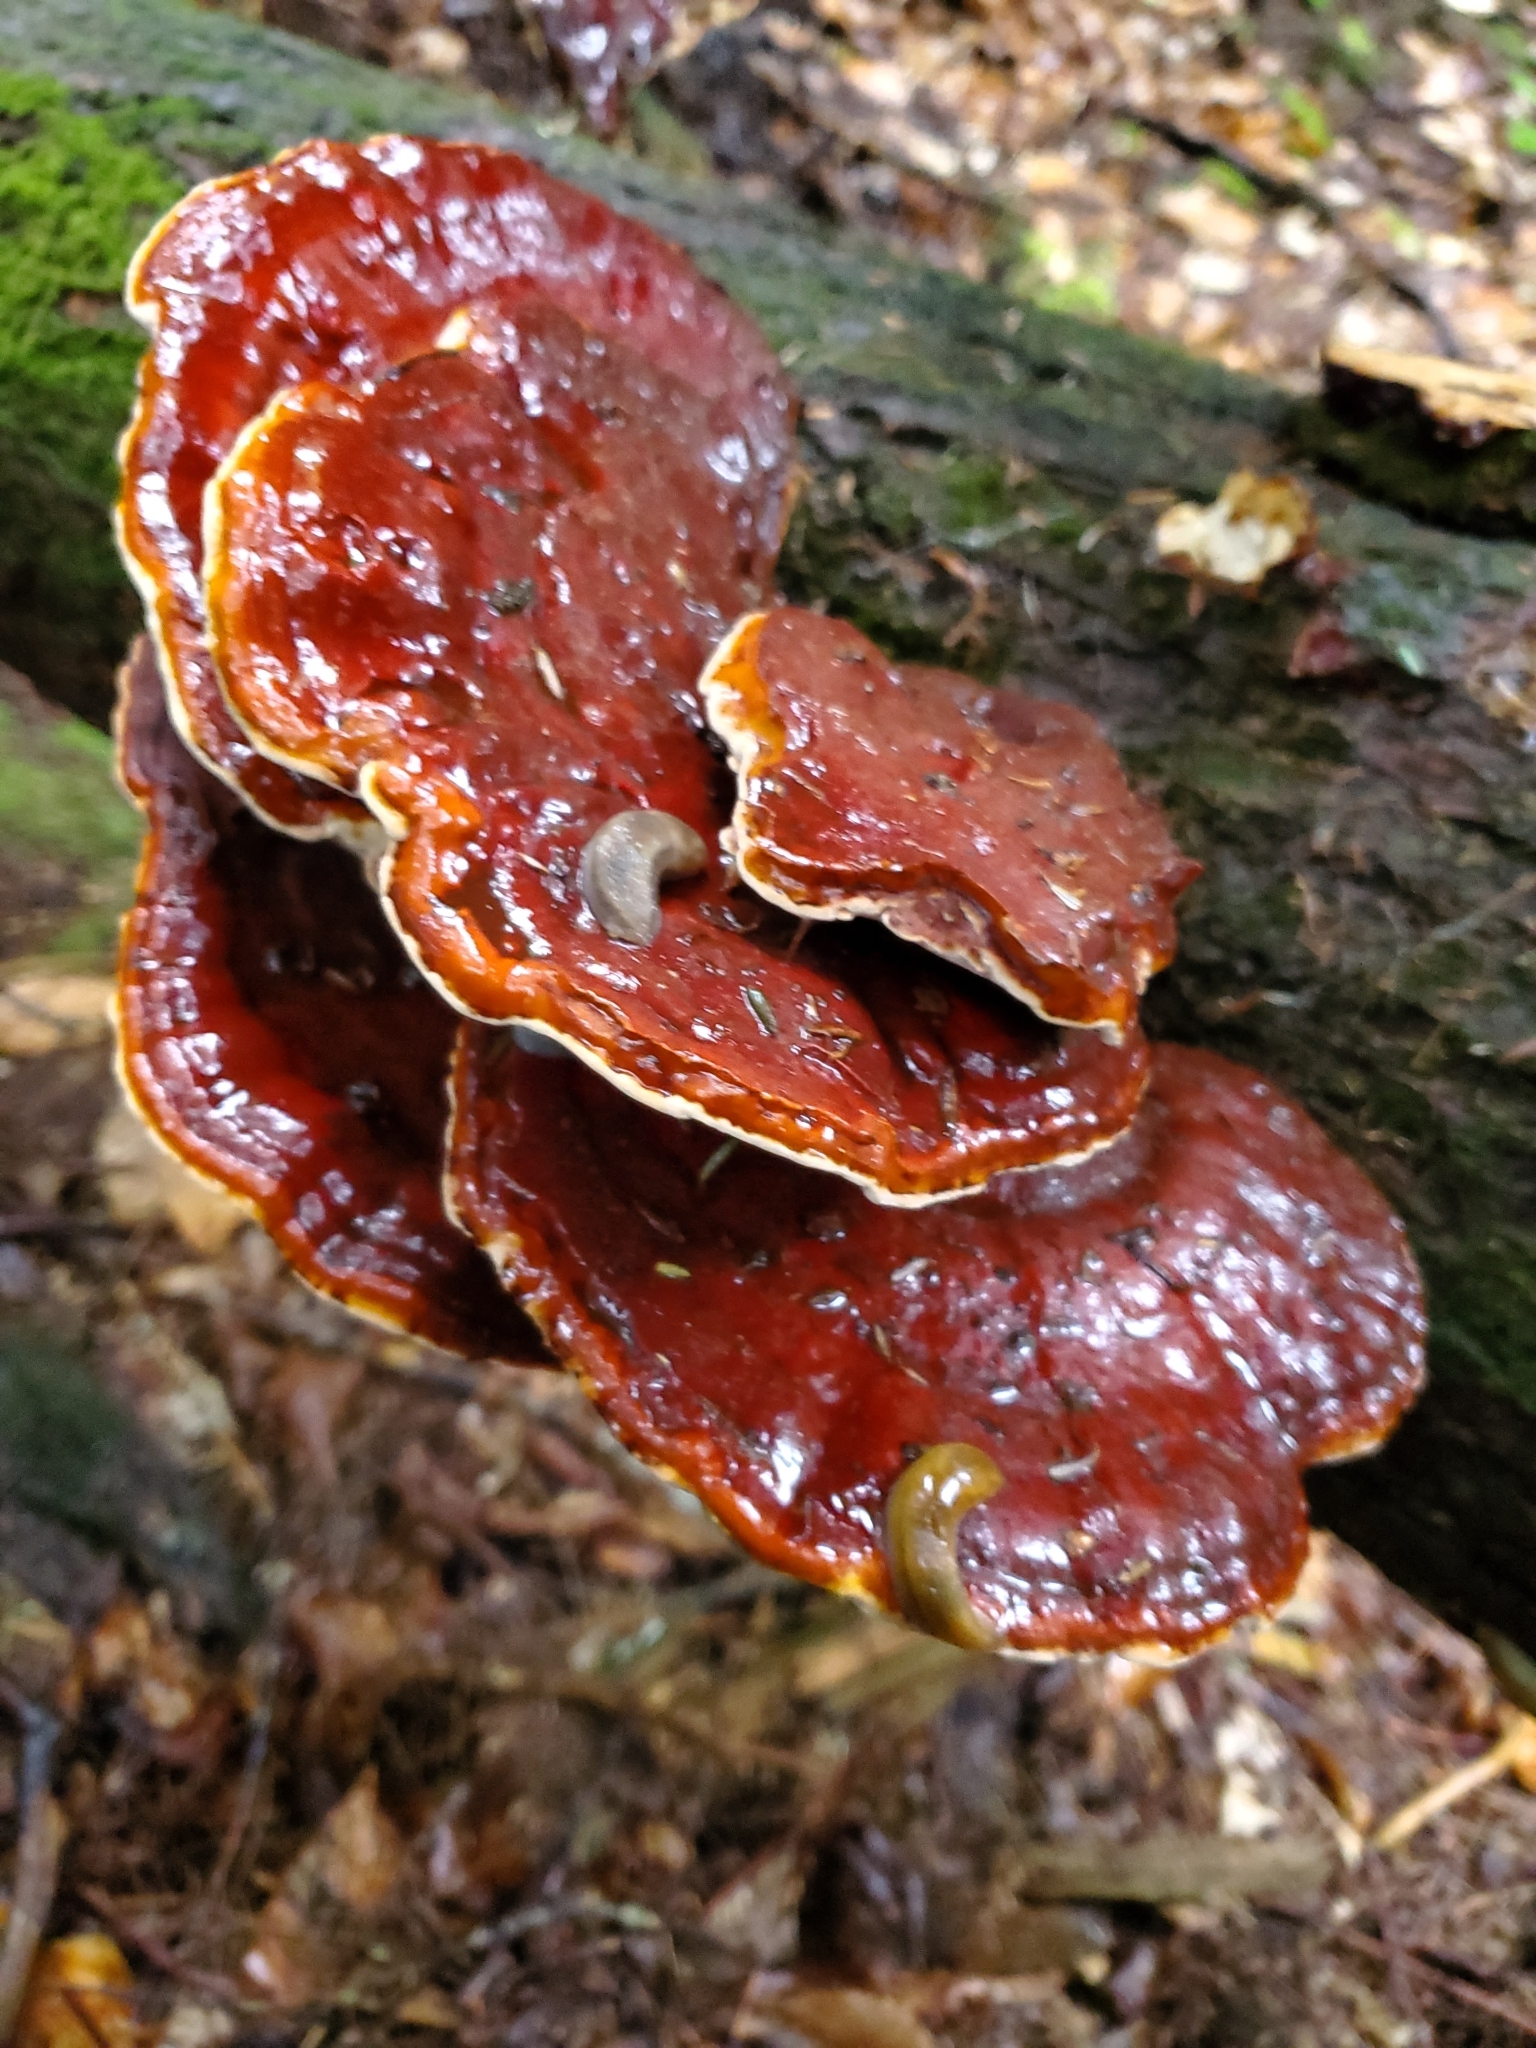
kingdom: Fungi
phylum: Basidiomycota
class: Agaricomycetes
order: Polyporales
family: Polyporaceae
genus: Ganoderma
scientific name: Ganoderma tsugae
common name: Hemlock varnish shelf
